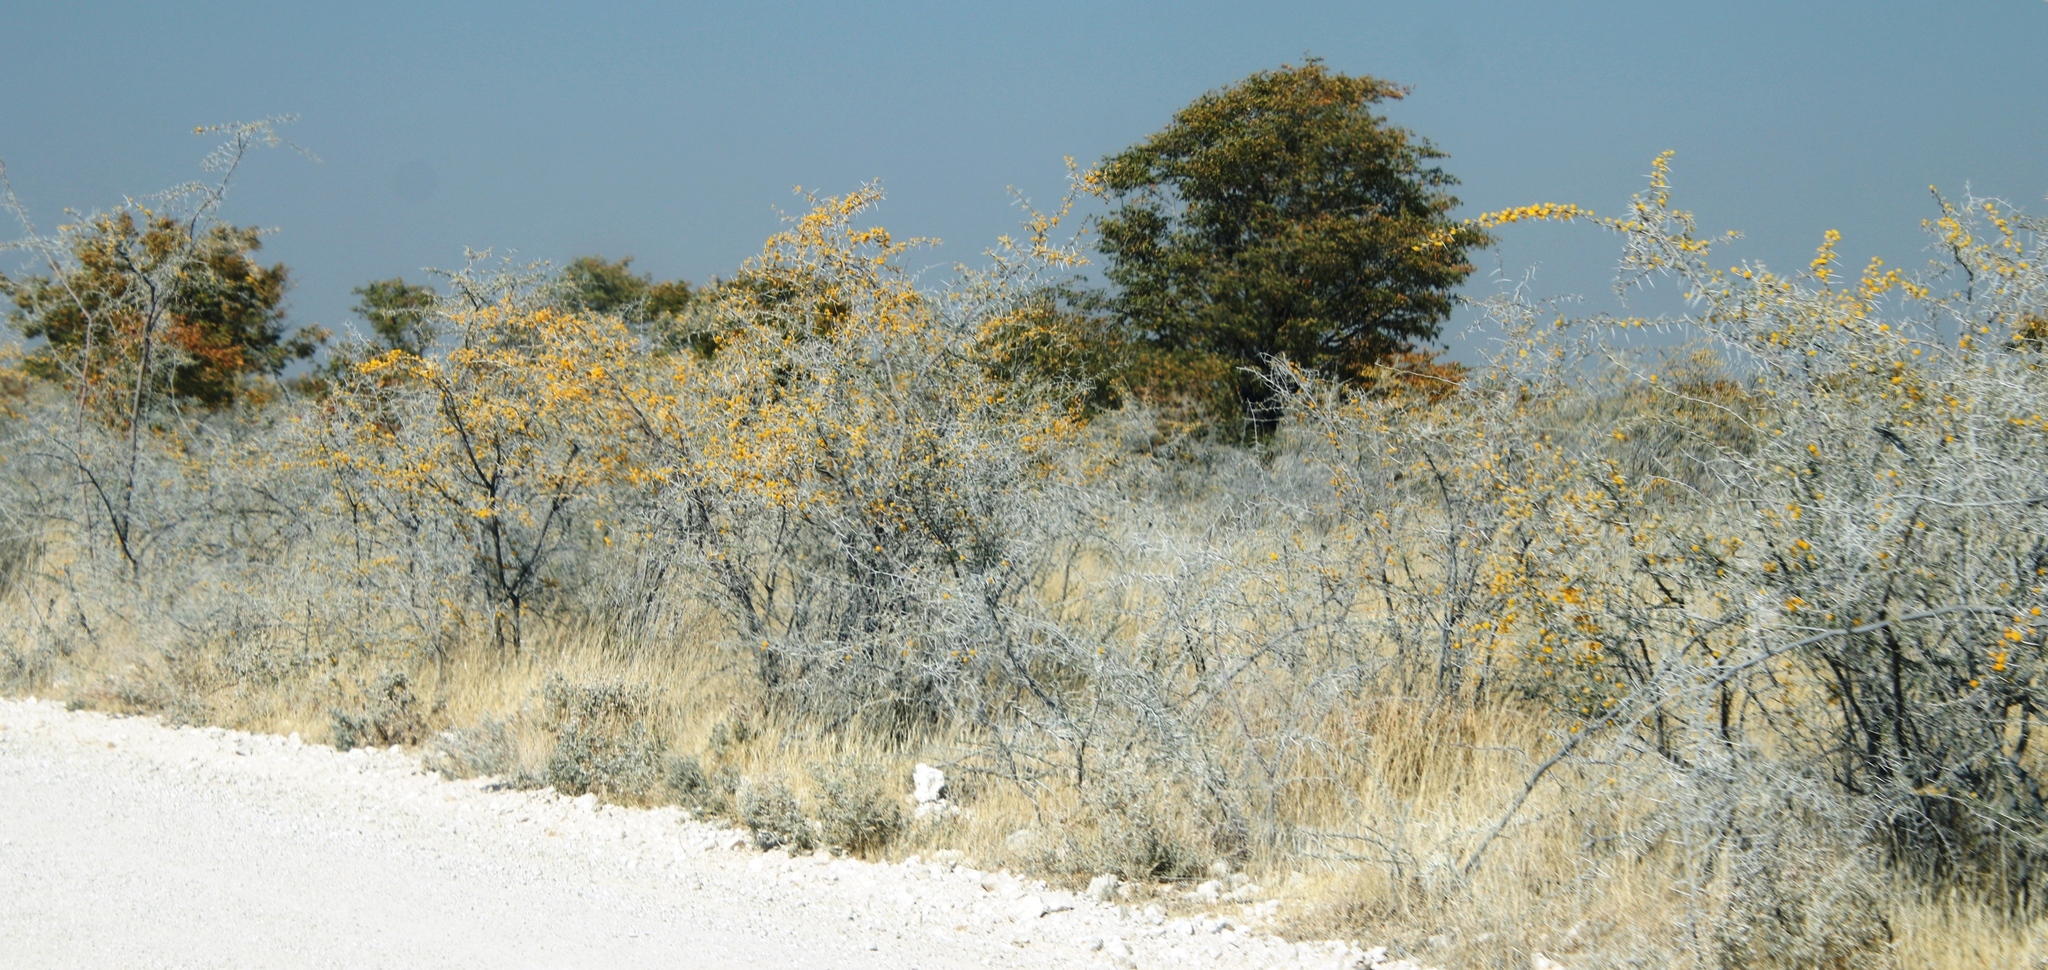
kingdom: Plantae
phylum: Tracheophyta
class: Magnoliopsida
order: Fabales
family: Fabaceae
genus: Colophospermum
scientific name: Colophospermum mopane
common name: Mopane
